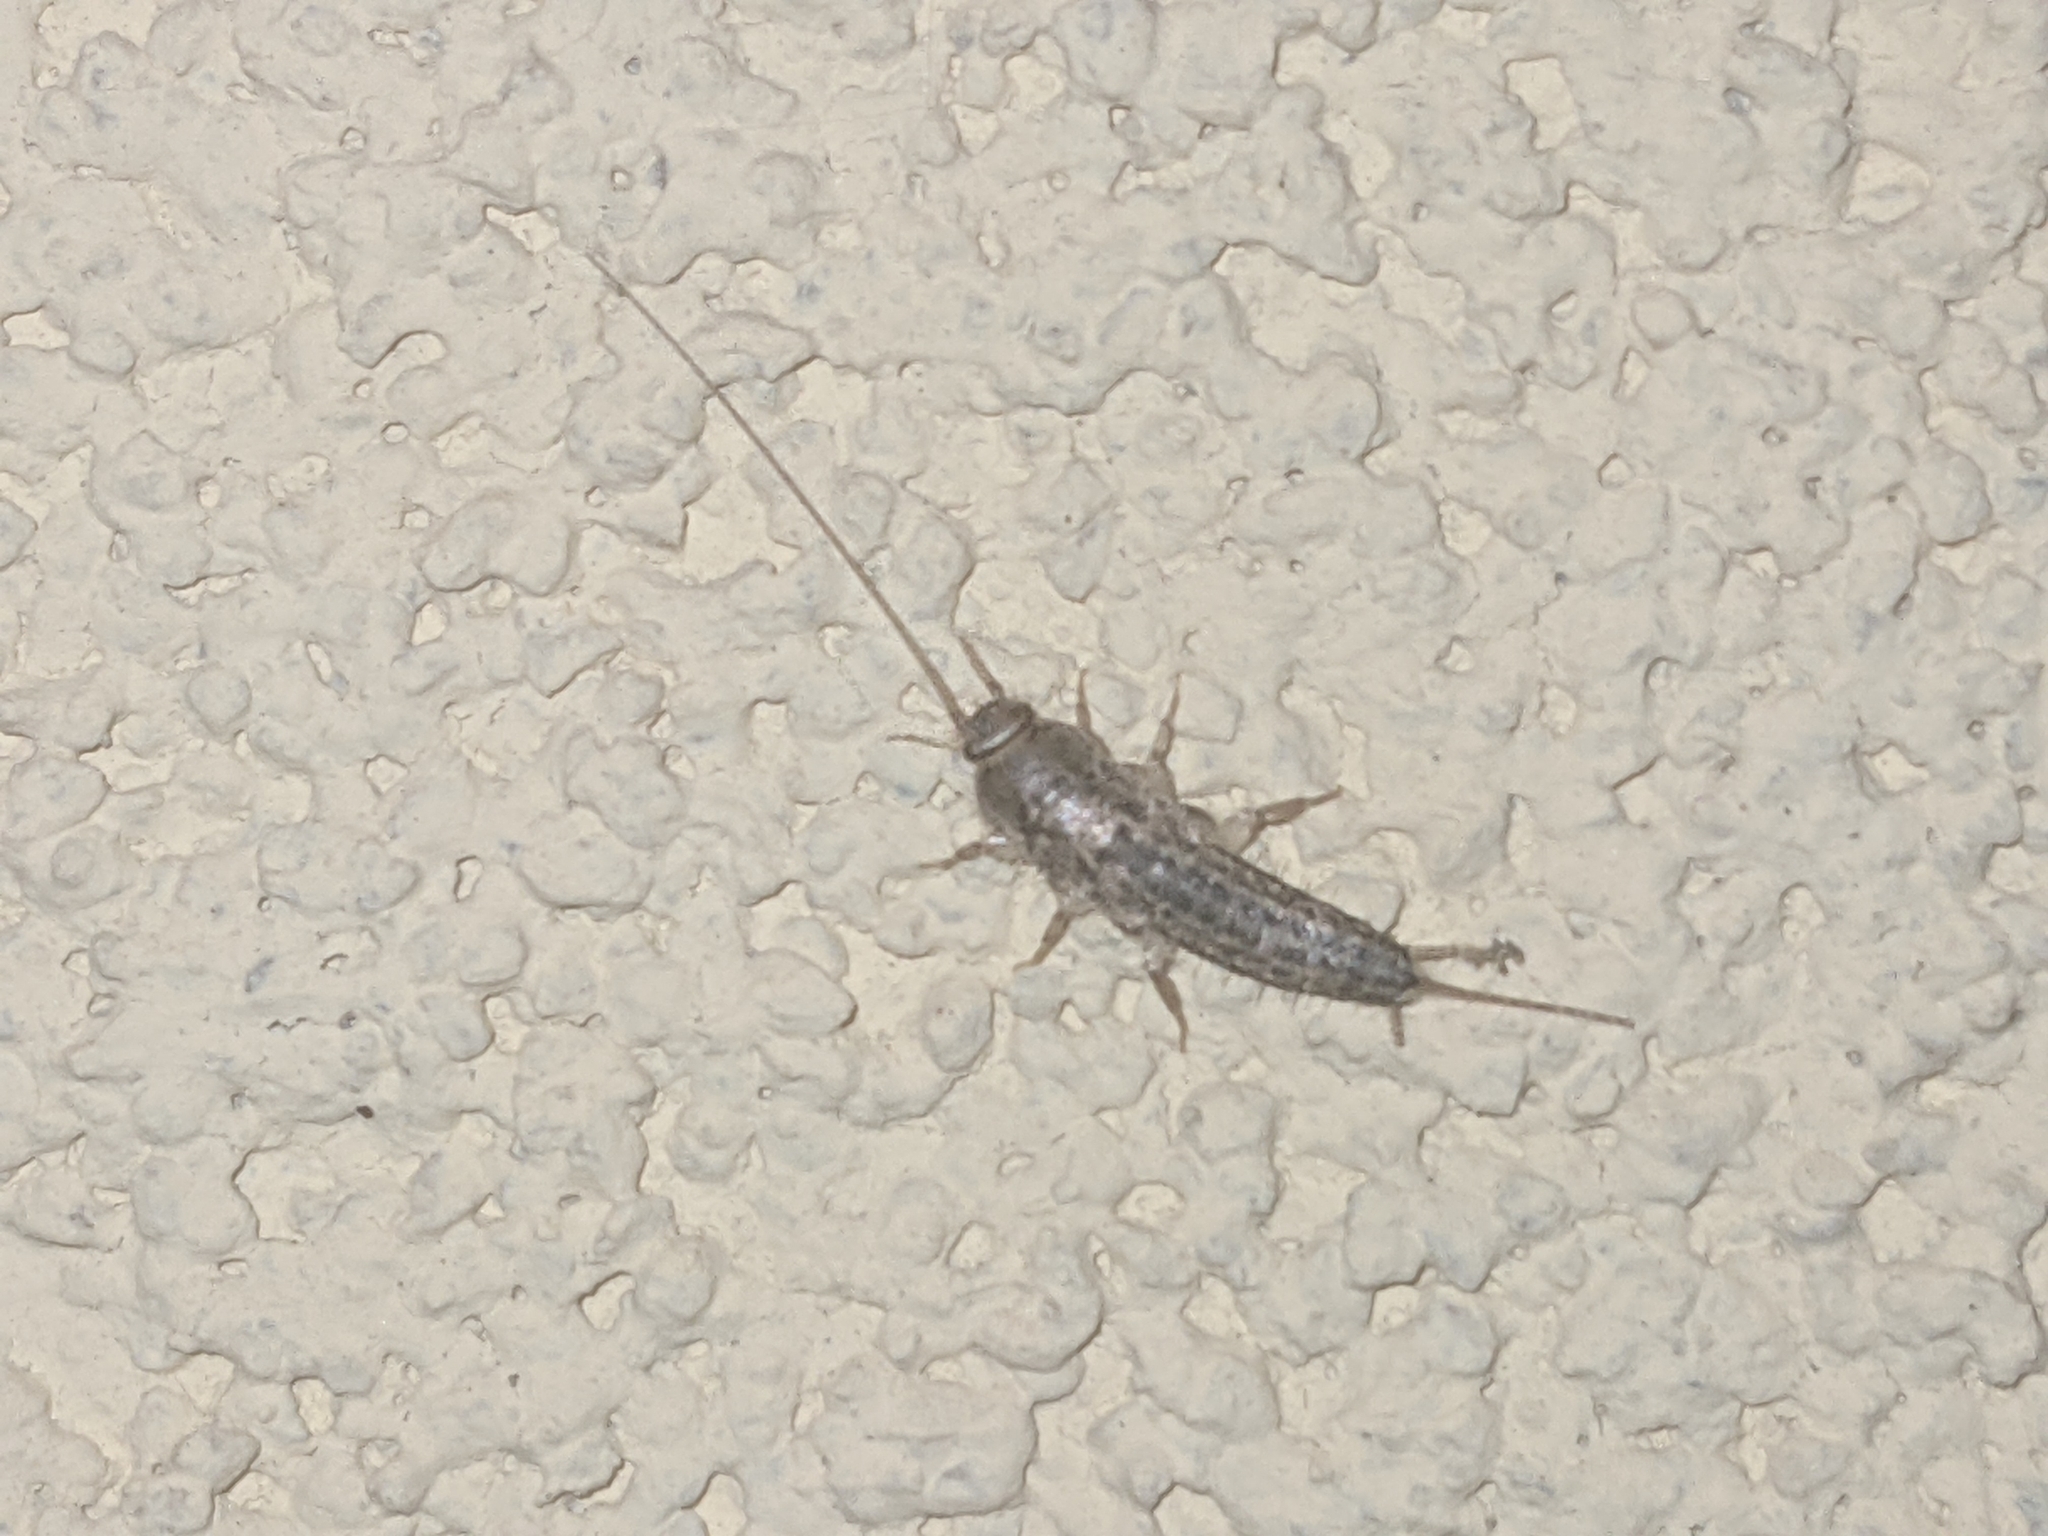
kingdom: Animalia
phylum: Arthropoda
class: Insecta
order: Zygentoma
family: Lepismatidae
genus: Ctenolepisma
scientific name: Ctenolepisma lineata
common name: Four-lined silverfish
